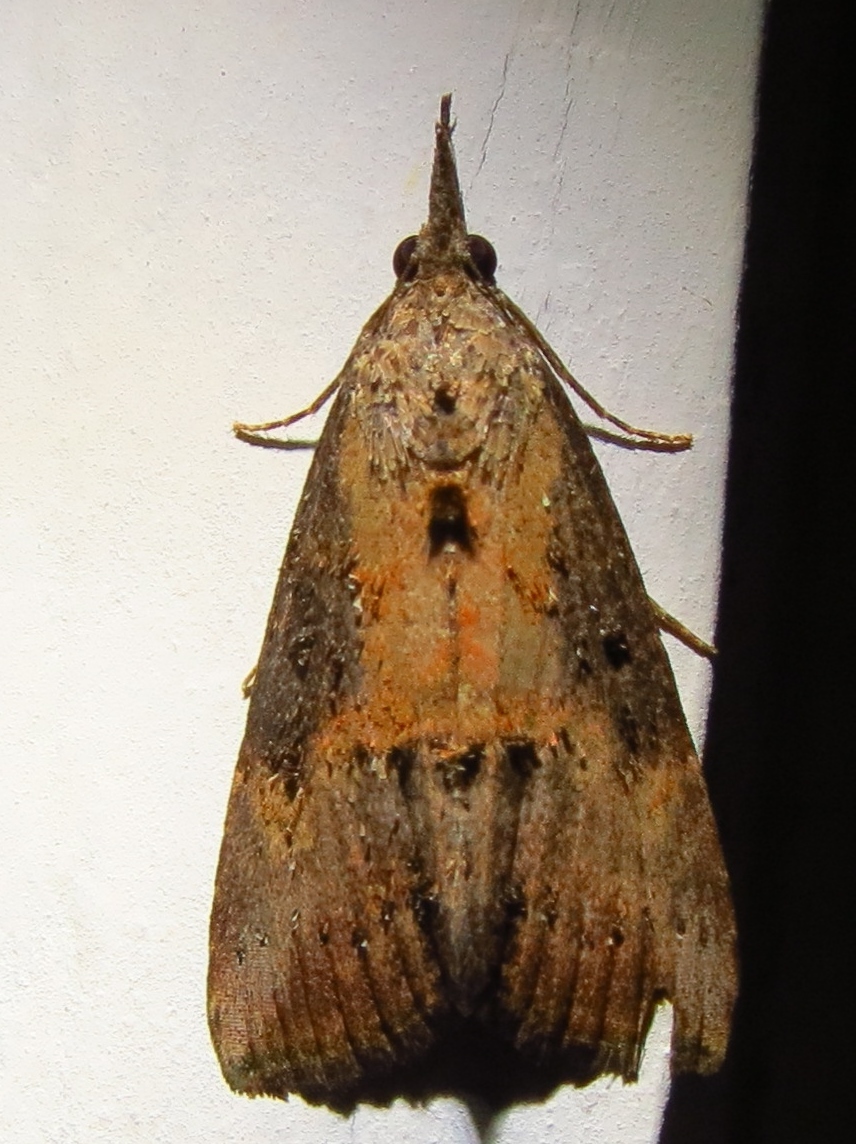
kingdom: Animalia
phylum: Arthropoda
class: Insecta
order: Lepidoptera
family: Erebidae
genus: Hypena
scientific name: Hypena scabra
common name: Green cloverworm
